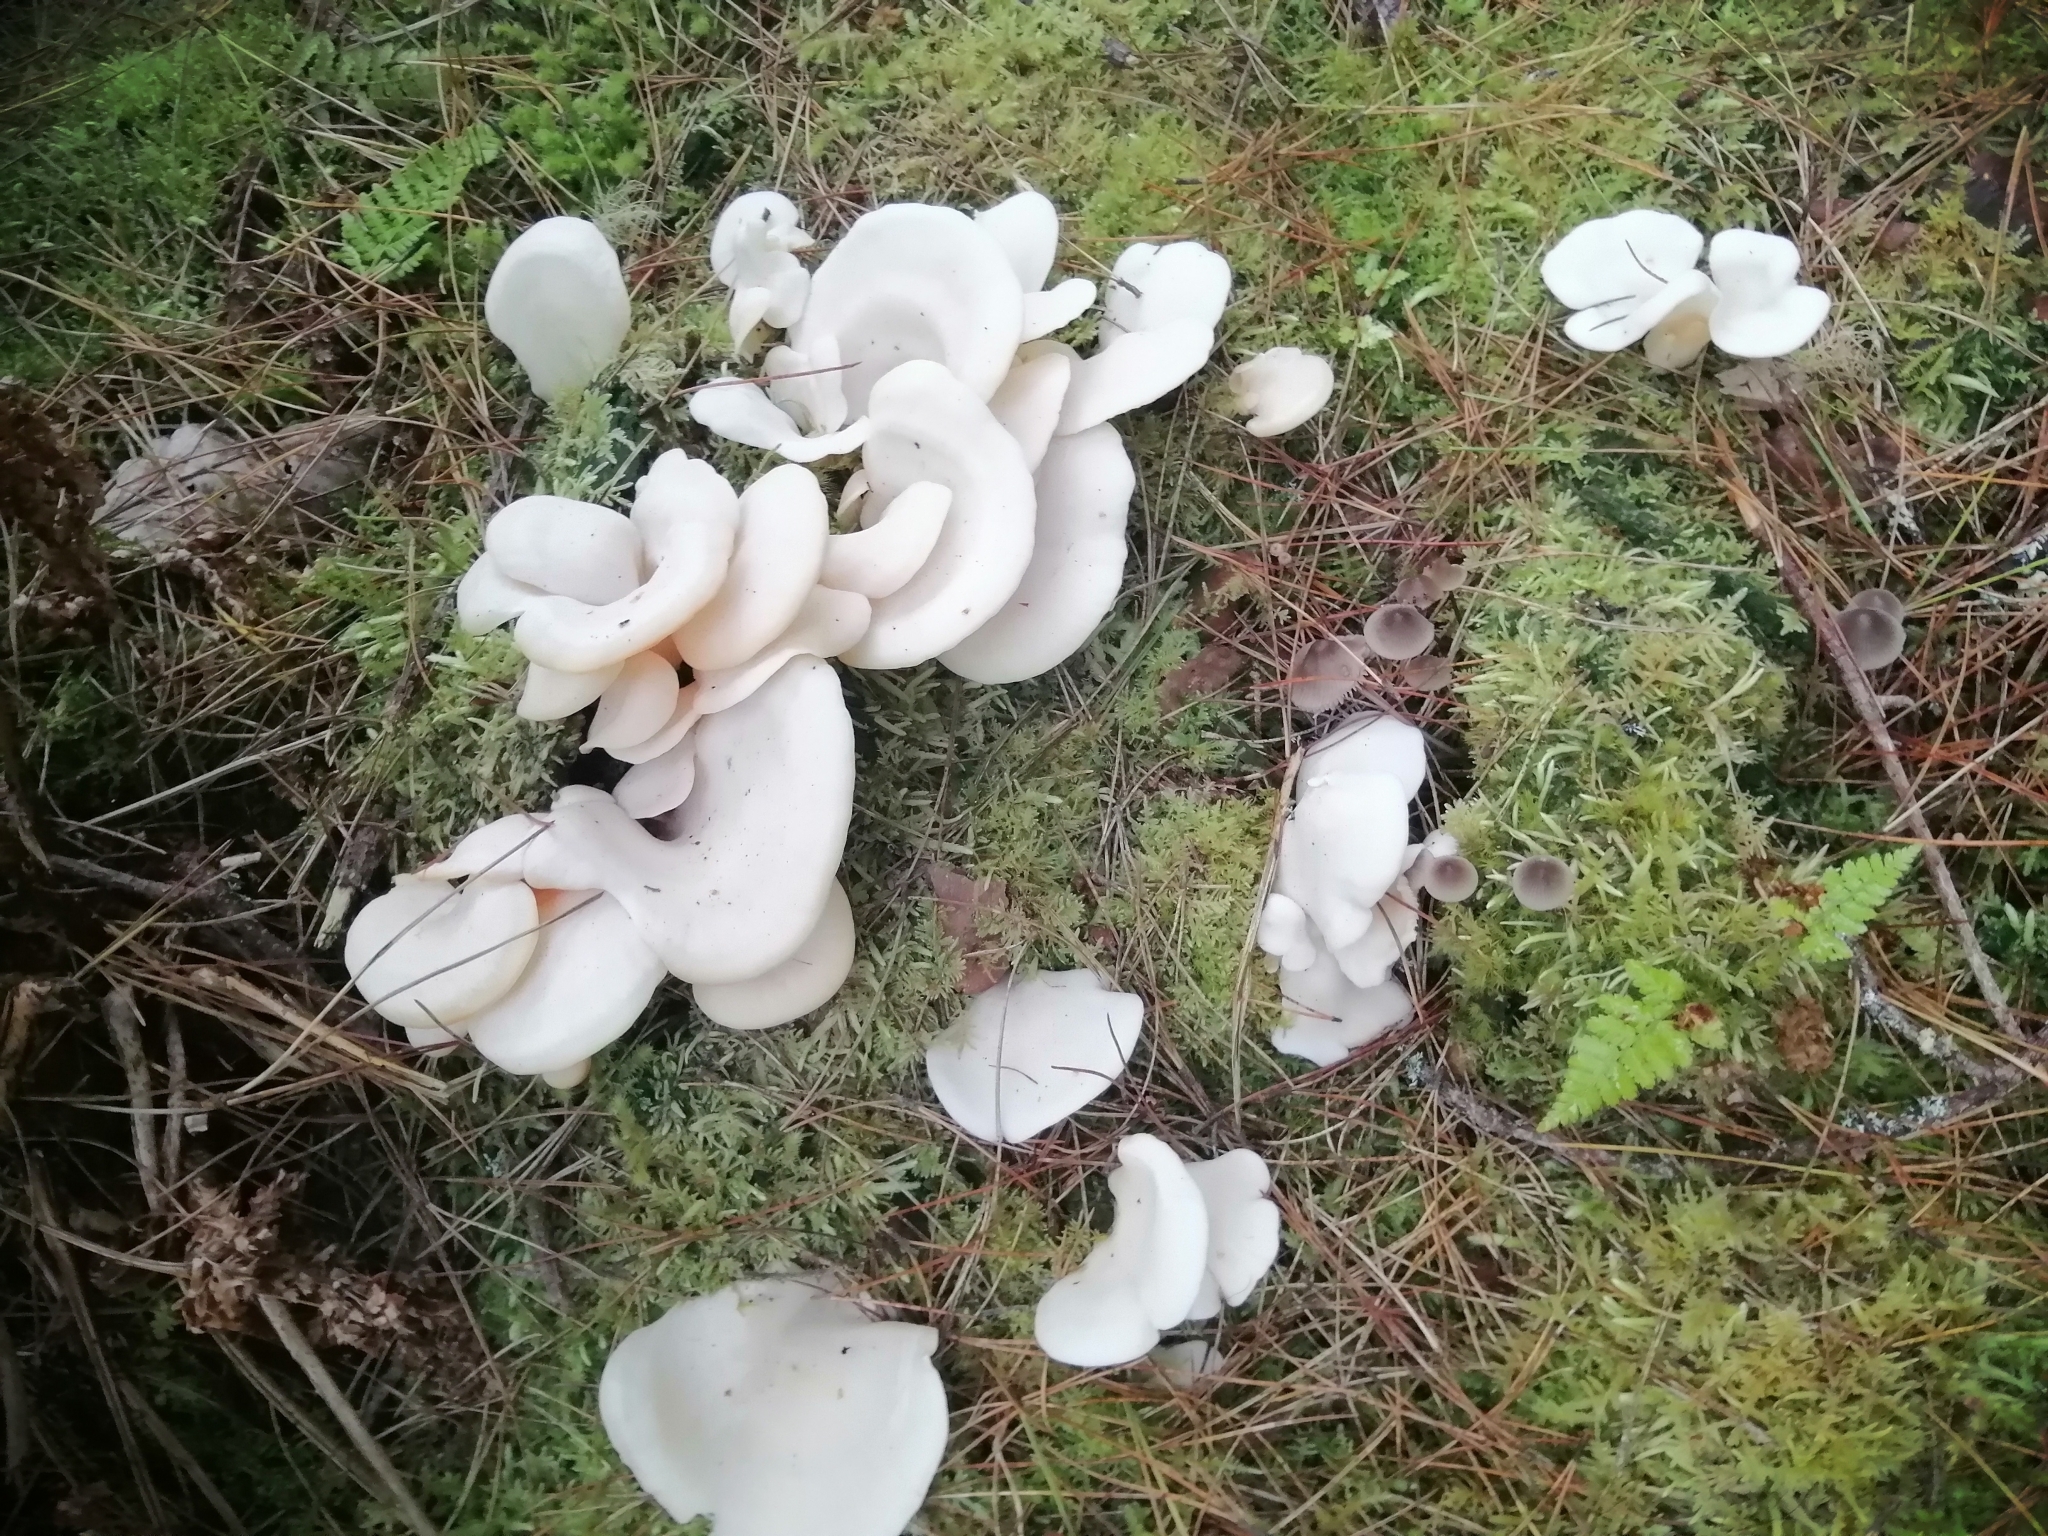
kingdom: Fungi
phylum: Basidiomycota
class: Agaricomycetes
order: Agaricales
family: Marasmiaceae
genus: Pleurocybella
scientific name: Pleurocybella porrigens
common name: Angel's wings
